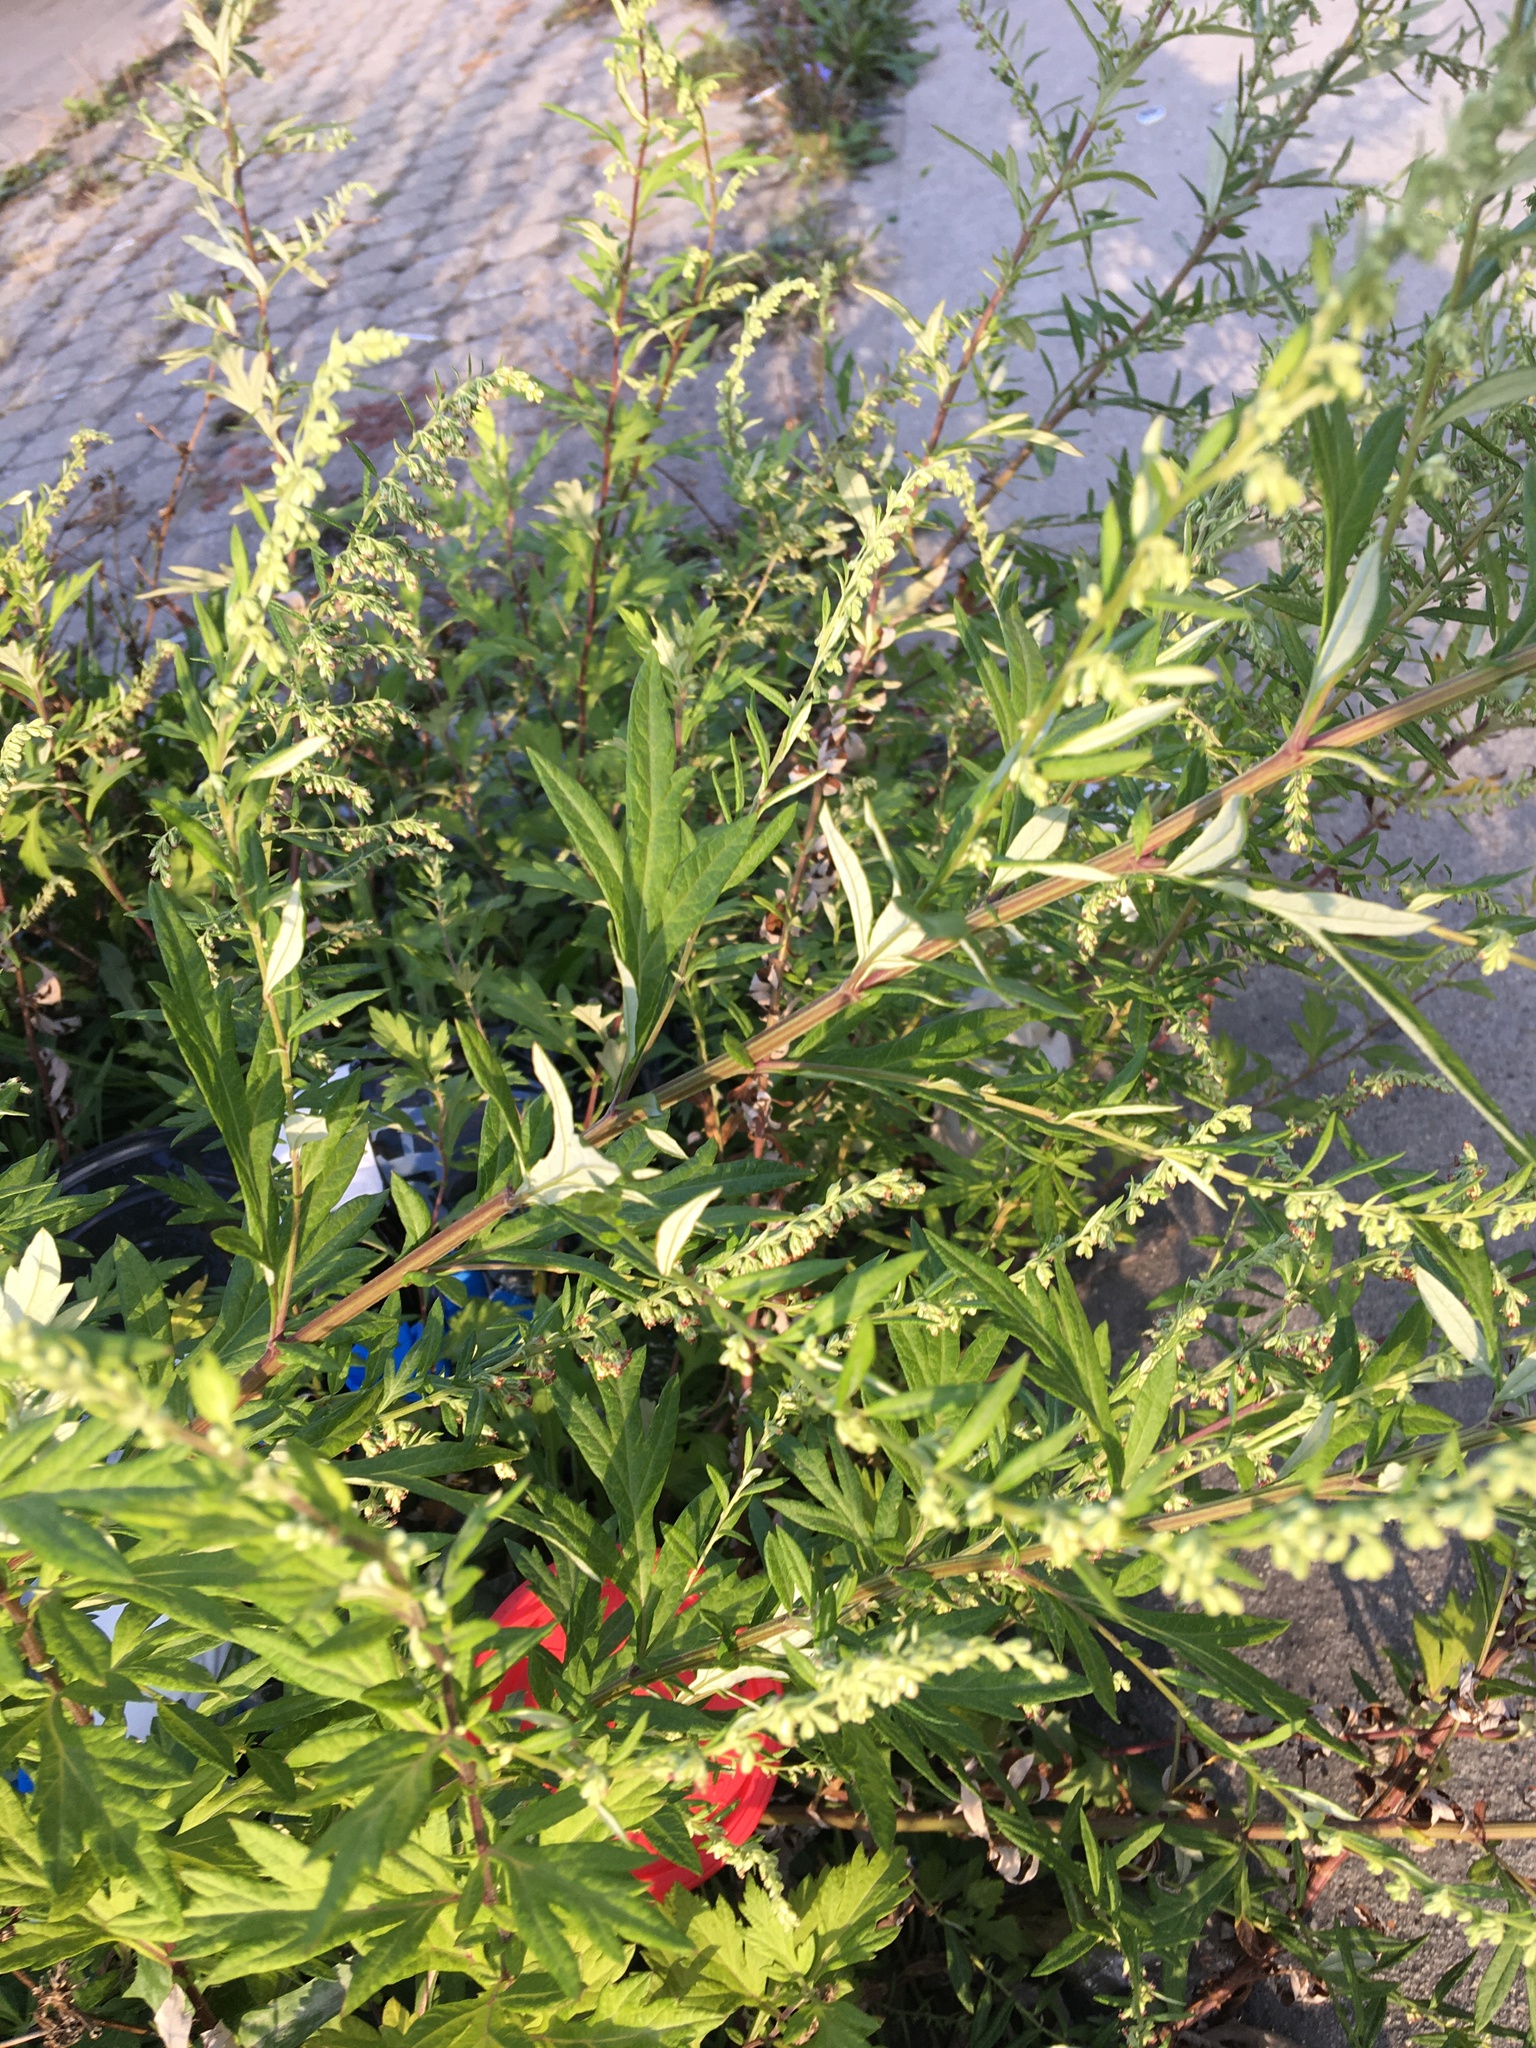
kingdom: Plantae
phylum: Tracheophyta
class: Magnoliopsida
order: Asterales
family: Asteraceae
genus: Artemisia
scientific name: Artemisia vulgaris
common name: Mugwort
